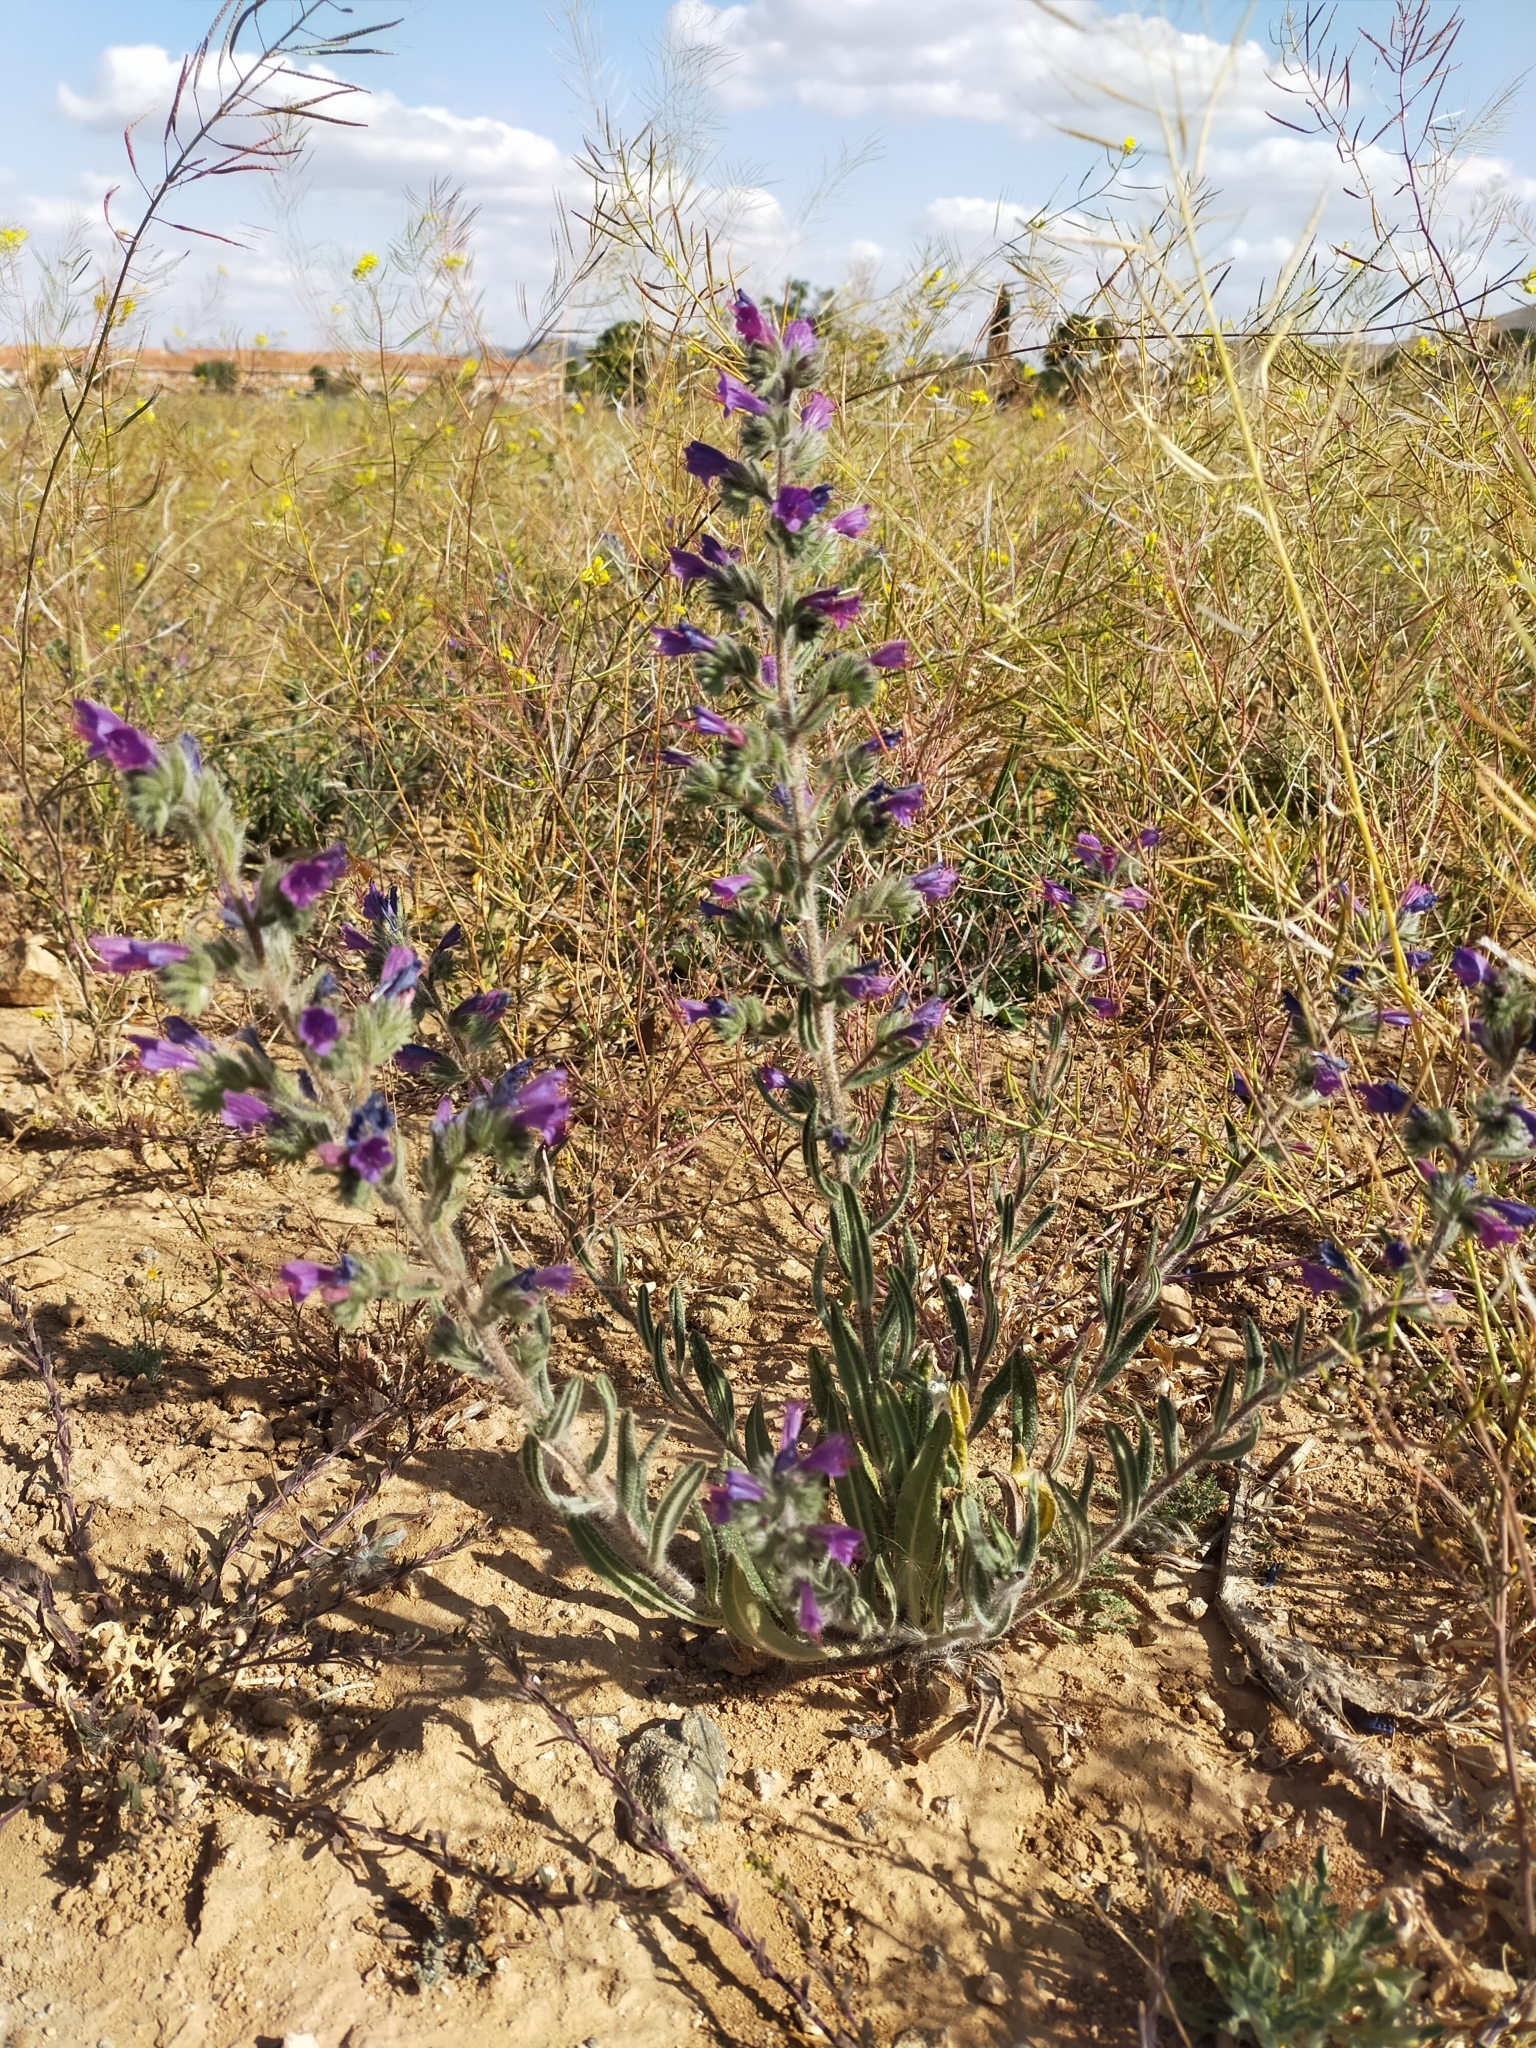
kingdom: Plantae
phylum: Tracheophyta
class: Magnoliopsida
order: Boraginales
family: Boraginaceae
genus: Echium
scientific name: Echium vulgare
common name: Common viper's bugloss
